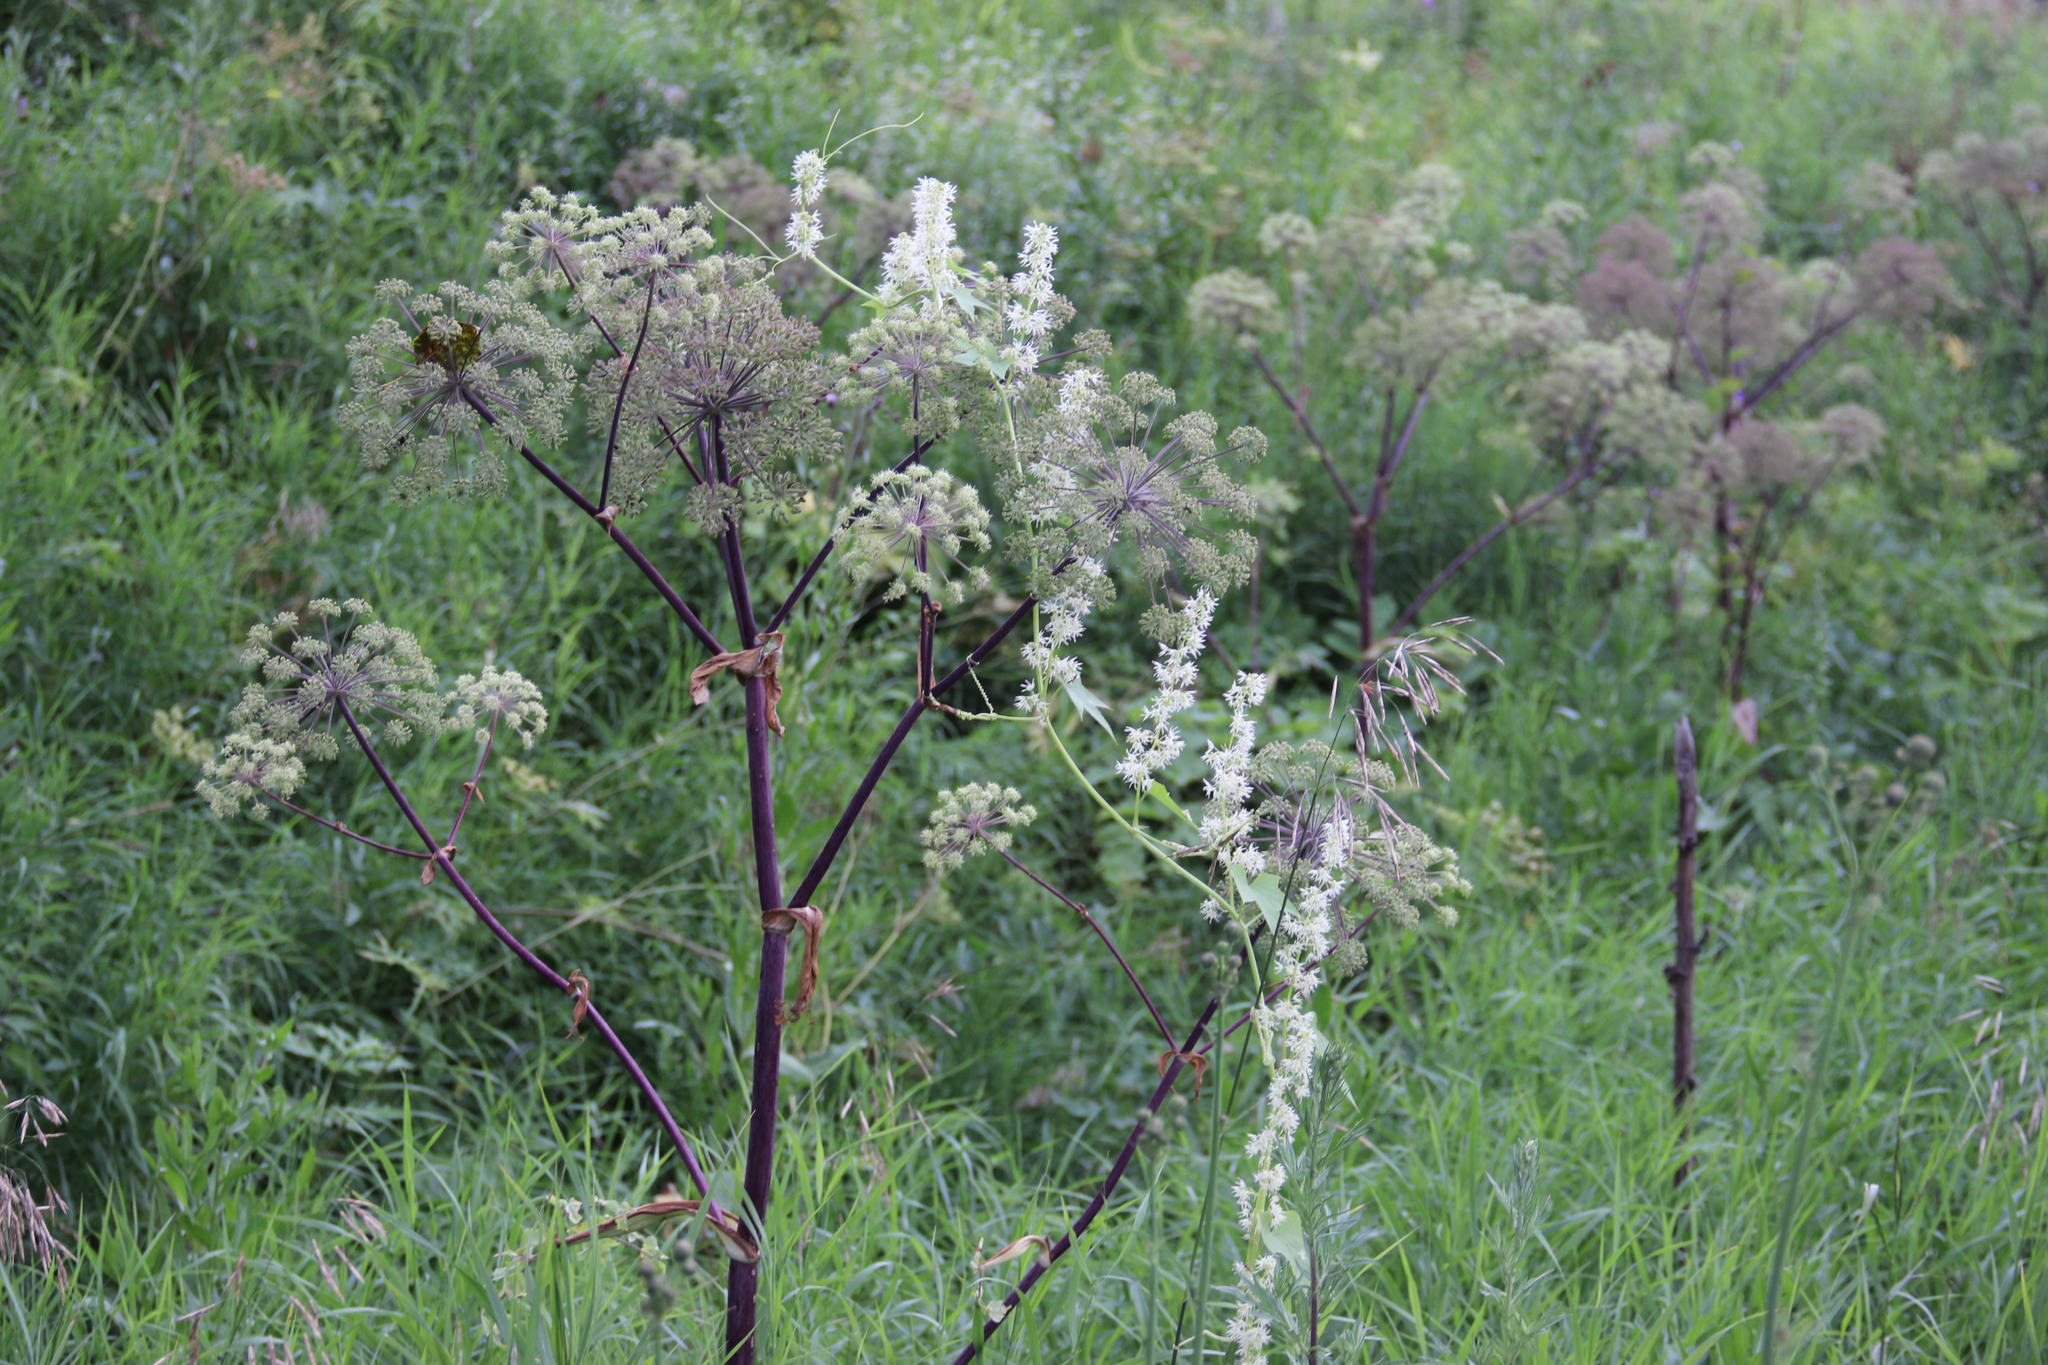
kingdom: Plantae
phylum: Tracheophyta
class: Magnoliopsida
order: Apiales
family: Apiaceae
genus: Angelica
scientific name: Angelica archangelica
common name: Garden angelica
